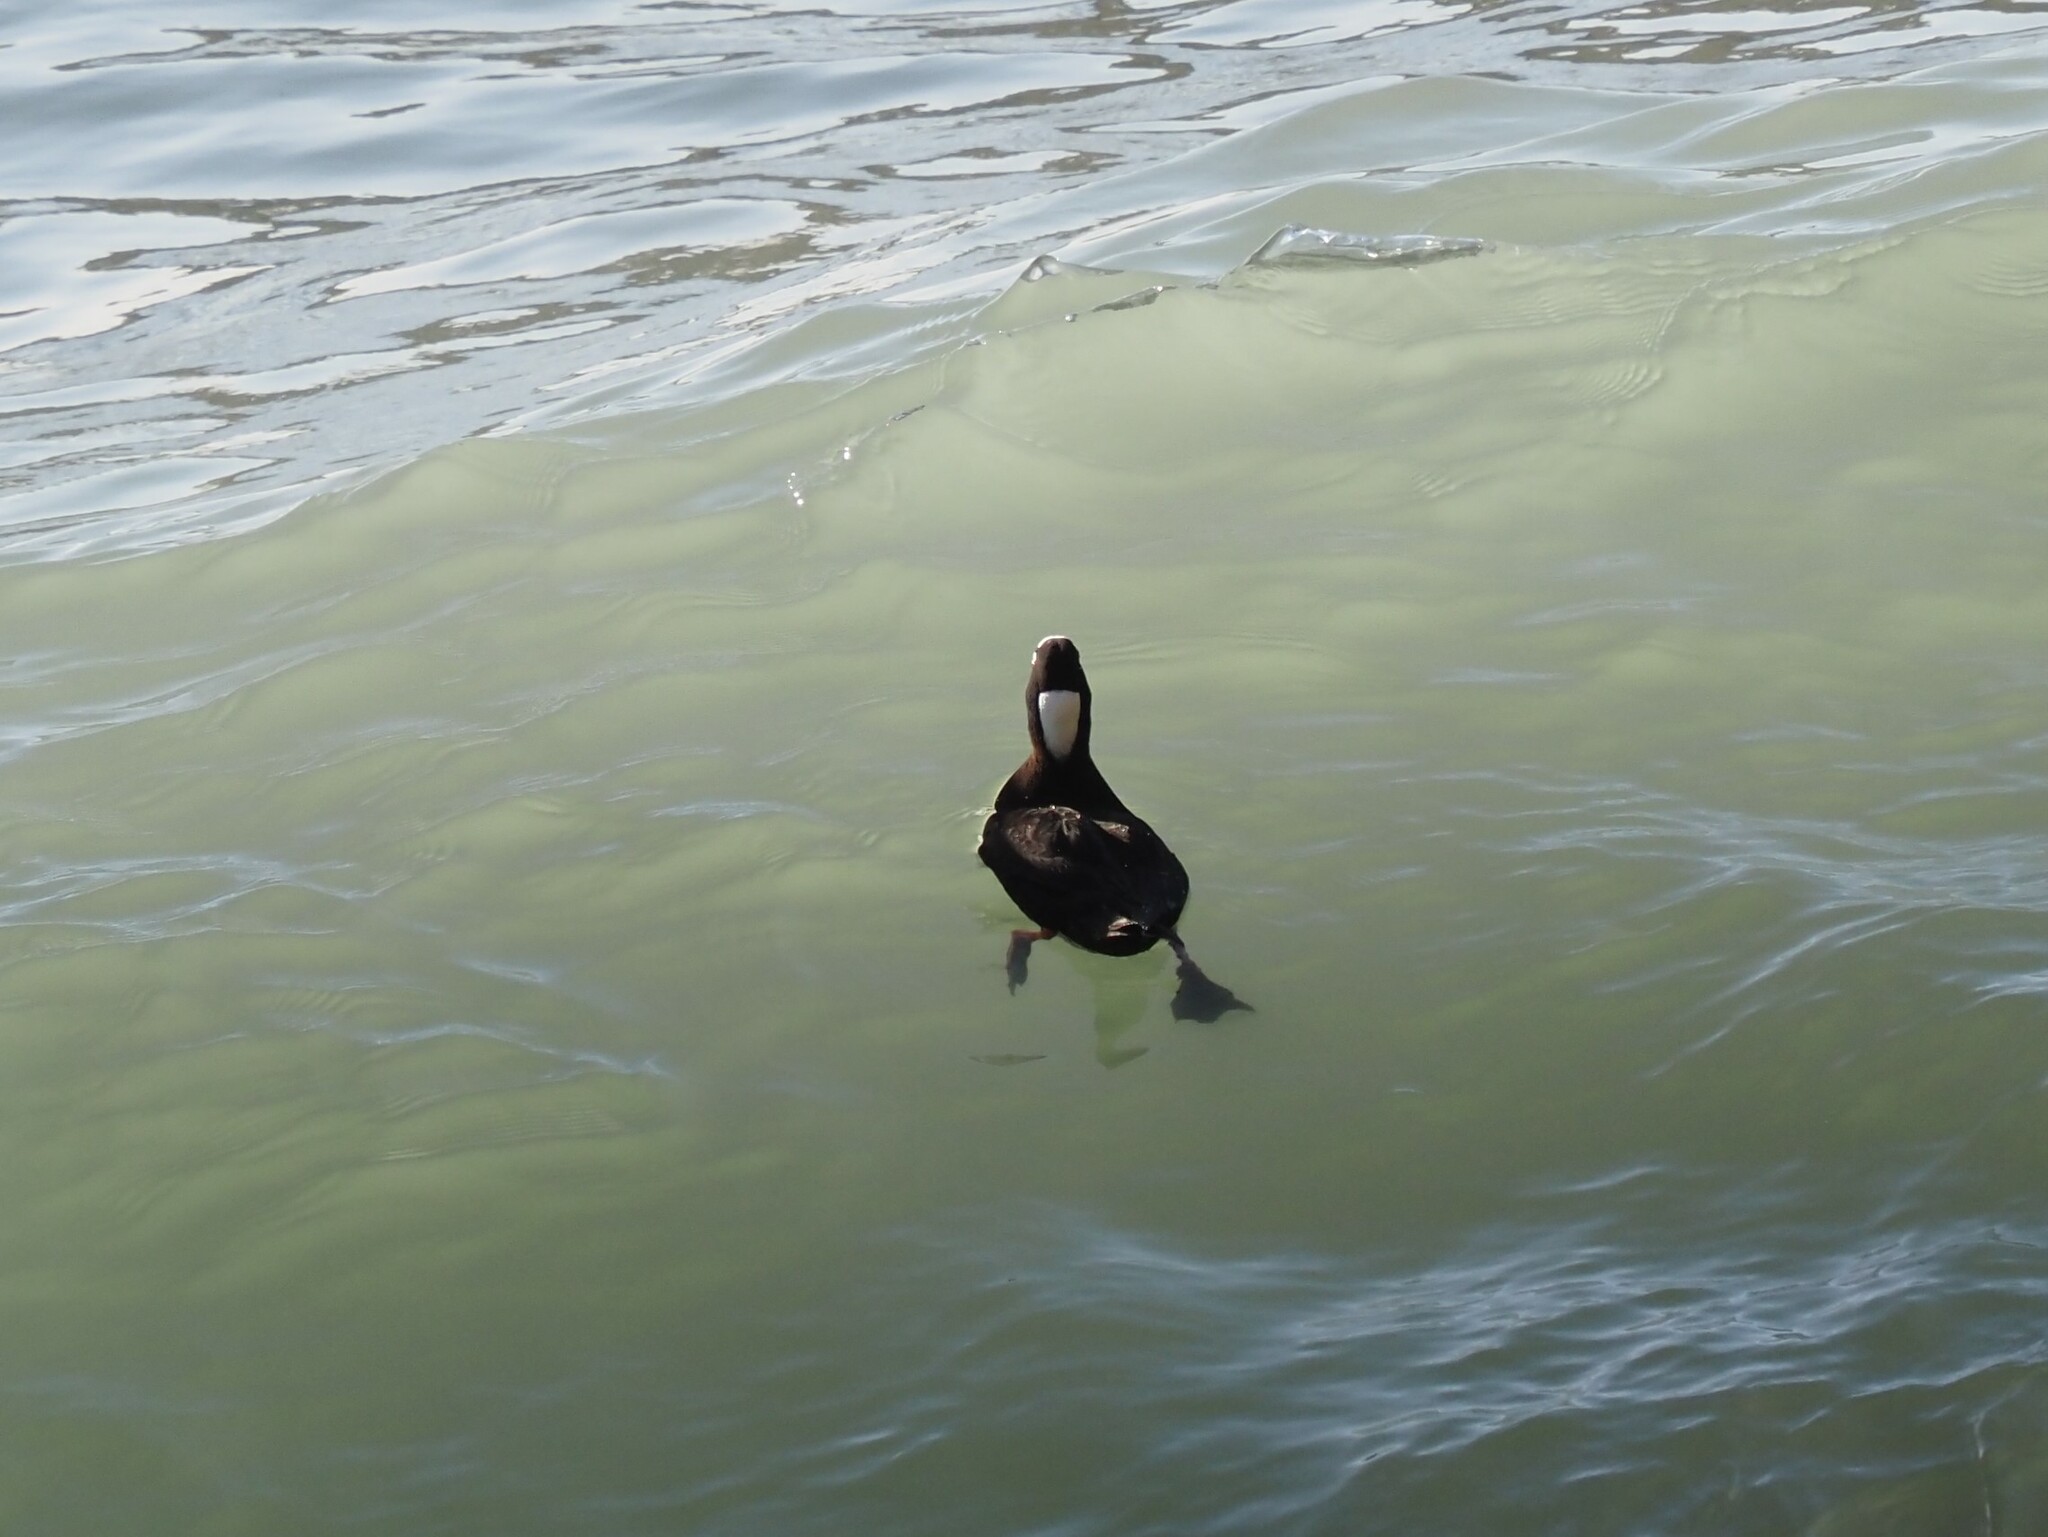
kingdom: Animalia
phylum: Chordata
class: Aves
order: Anseriformes
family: Anatidae
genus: Melanitta
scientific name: Melanitta perspicillata
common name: Surf scoter
